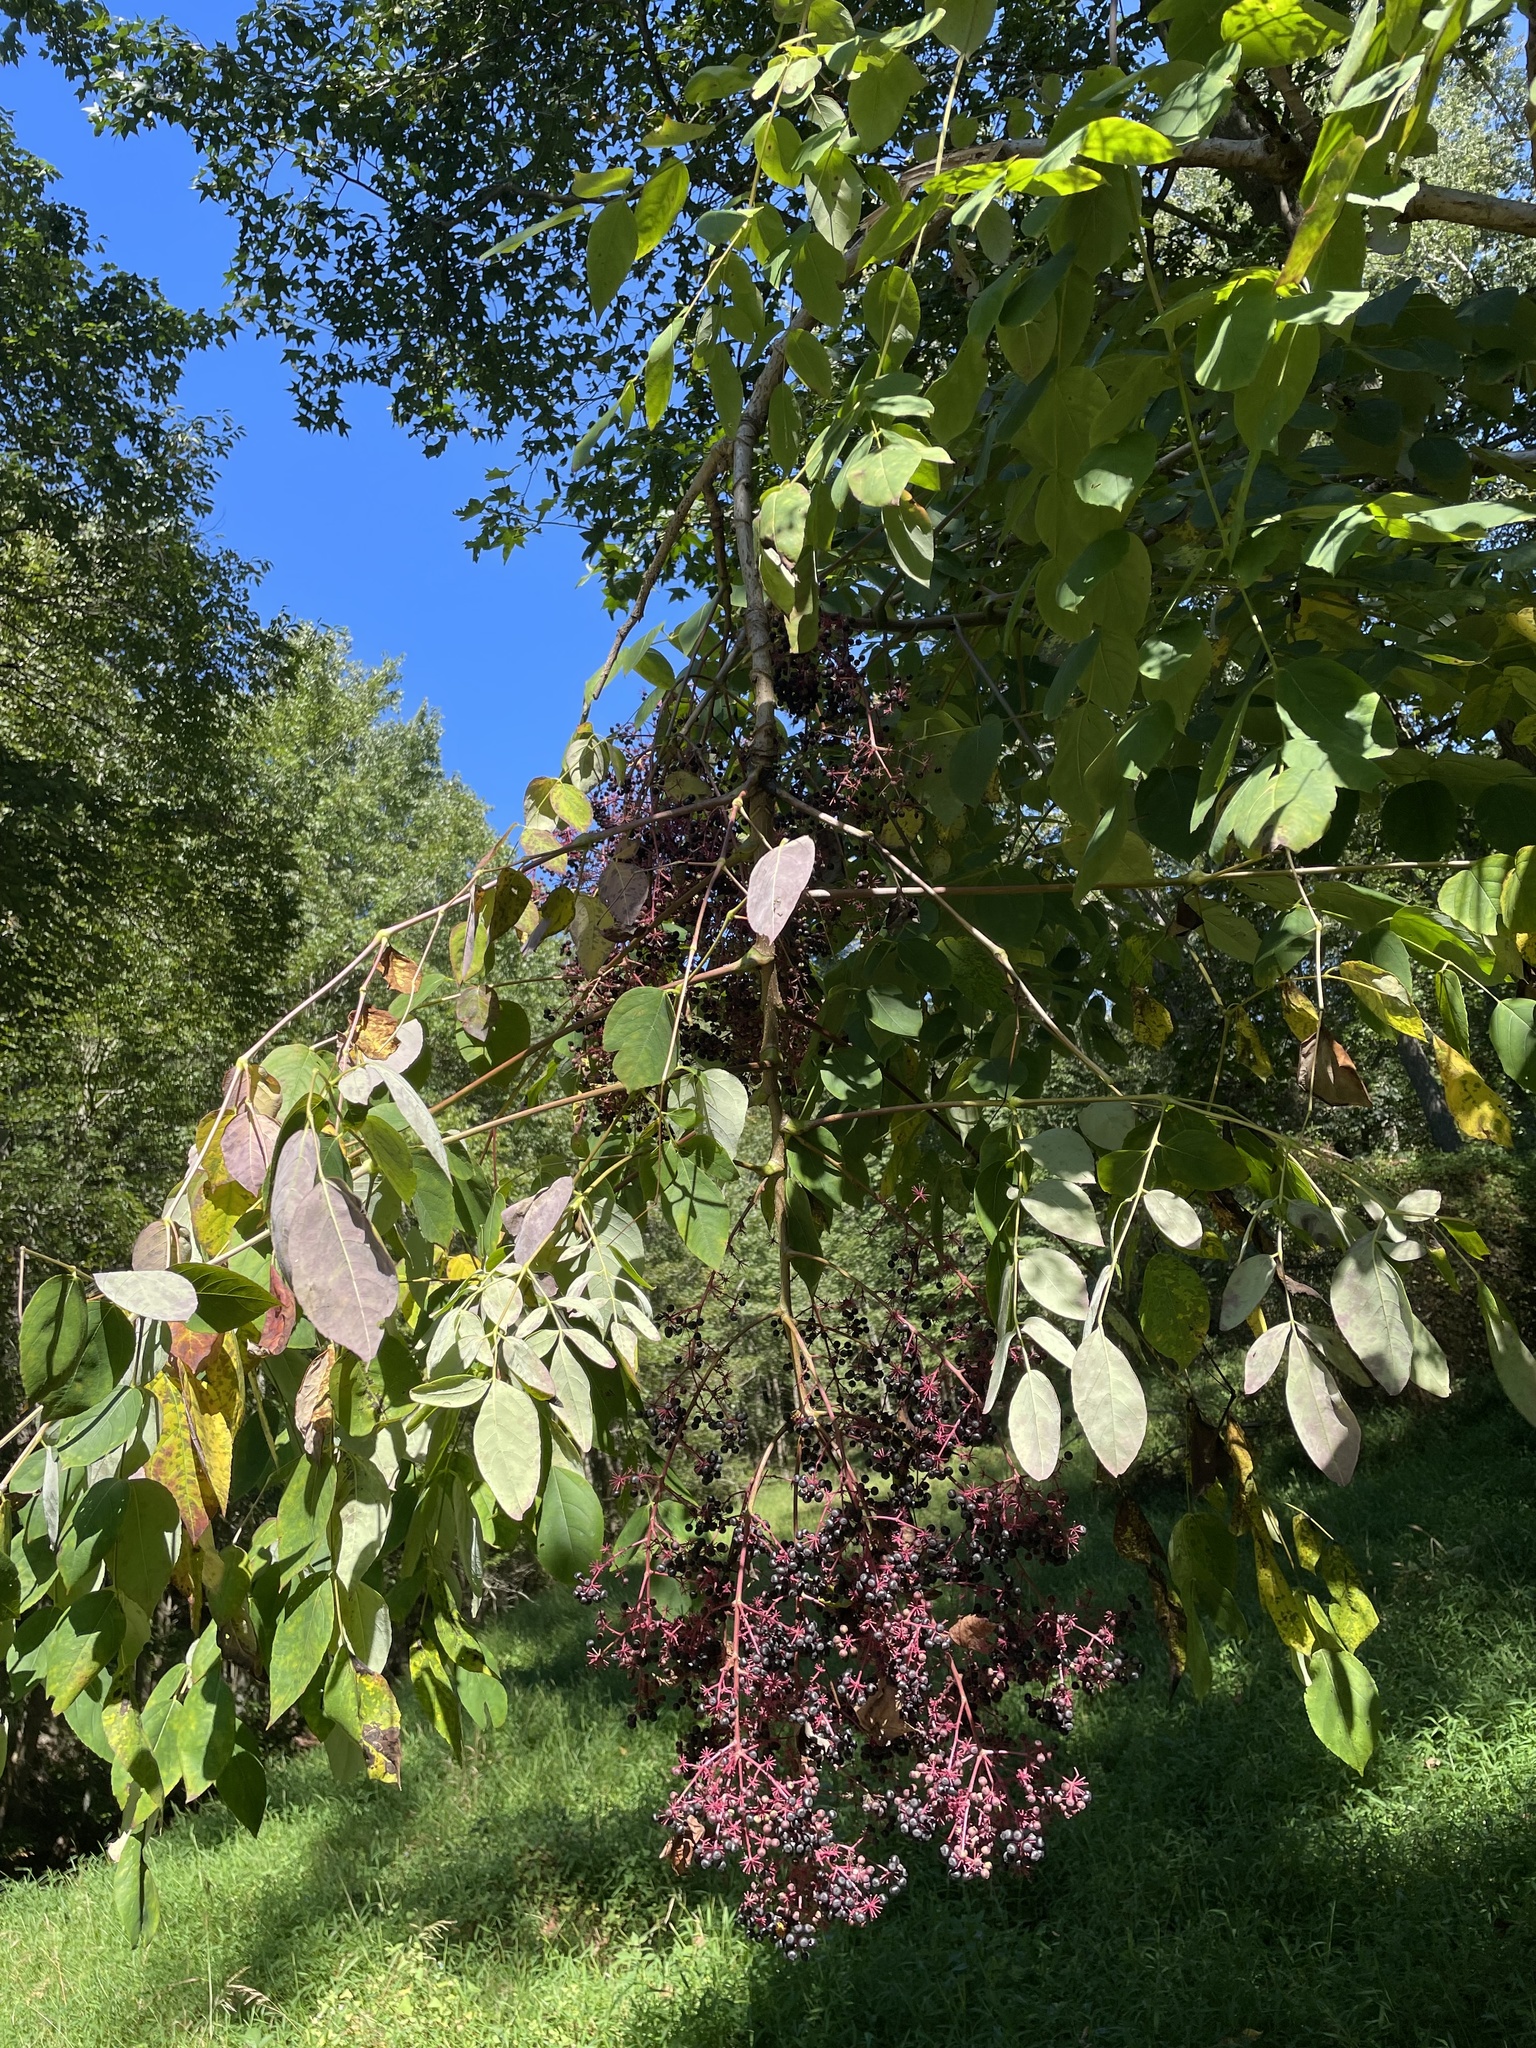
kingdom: Plantae
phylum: Tracheophyta
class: Magnoliopsida
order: Apiales
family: Araliaceae
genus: Aralia
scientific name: Aralia spinosa
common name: Hercules'-club
